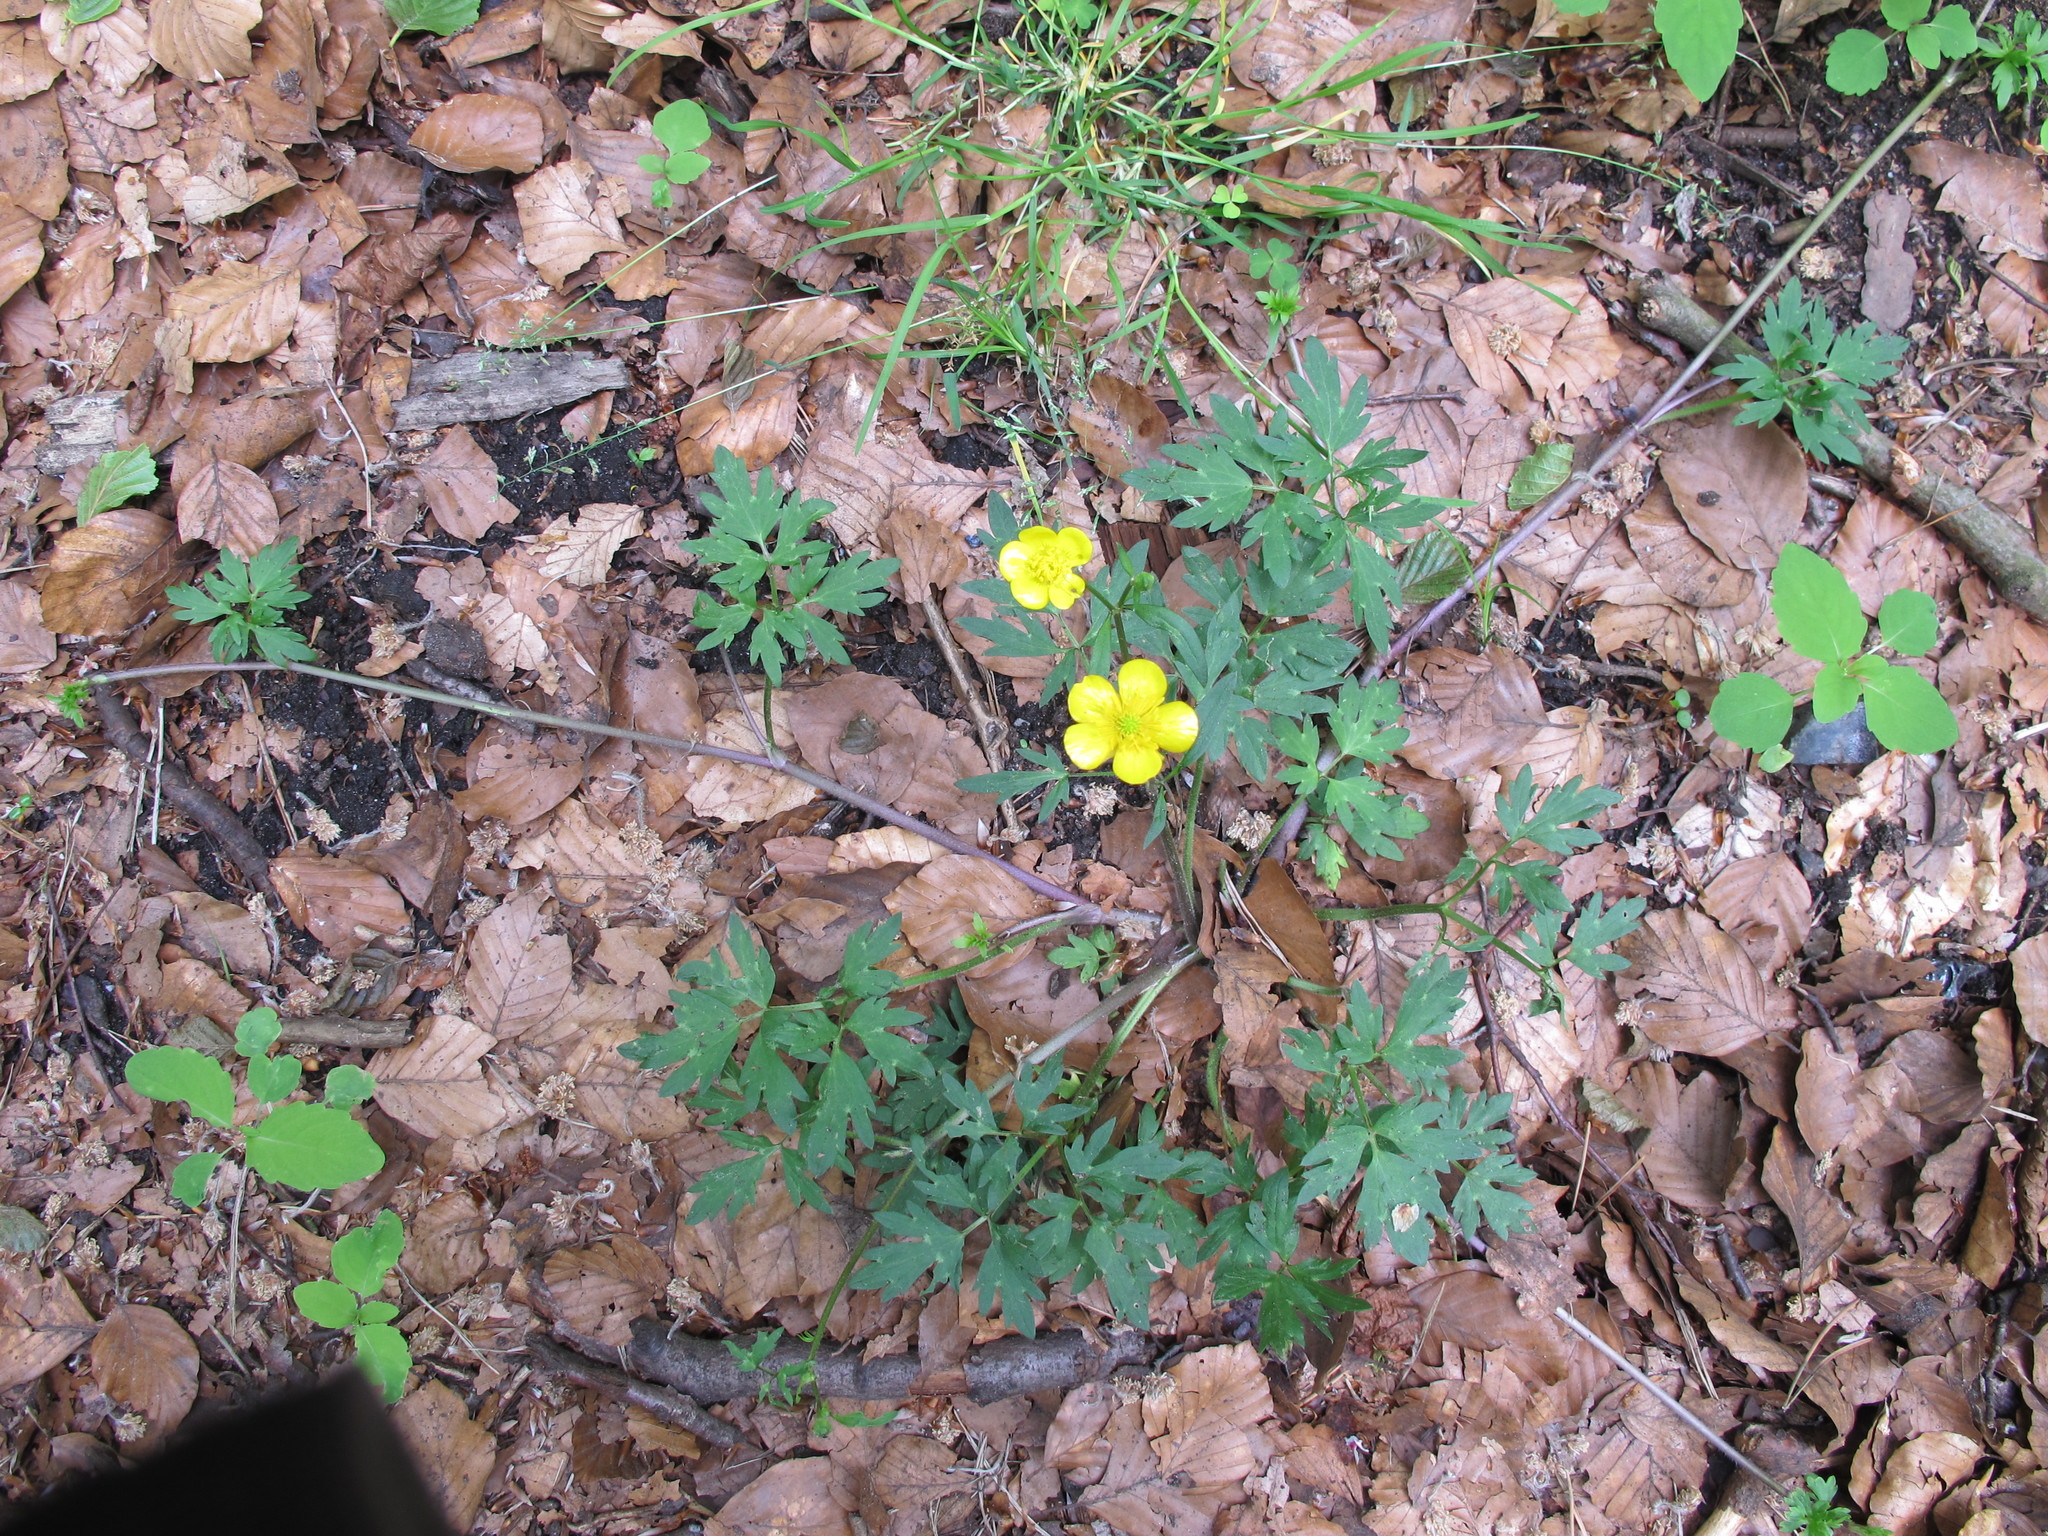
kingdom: Plantae
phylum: Tracheophyta
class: Magnoliopsida
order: Ranunculales
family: Ranunculaceae
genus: Ranunculus
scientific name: Ranunculus repens
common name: Creeping buttercup
